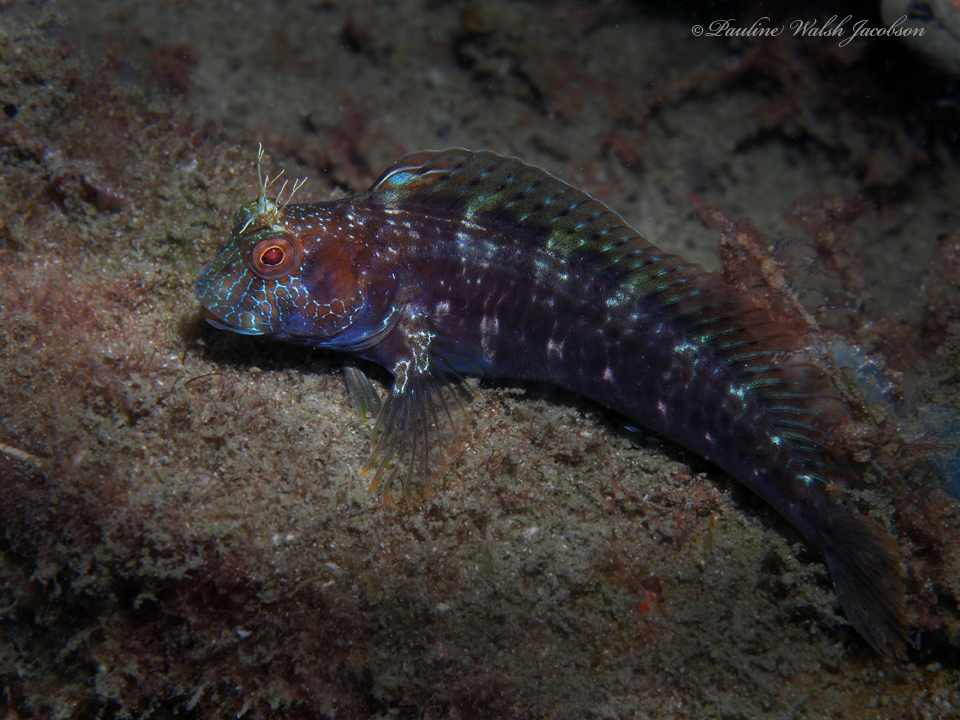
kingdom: Animalia
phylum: Chordata
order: Perciformes
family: Blenniidae
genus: Parablennius
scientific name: Parablennius marmoreus
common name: Seaweed blenny
